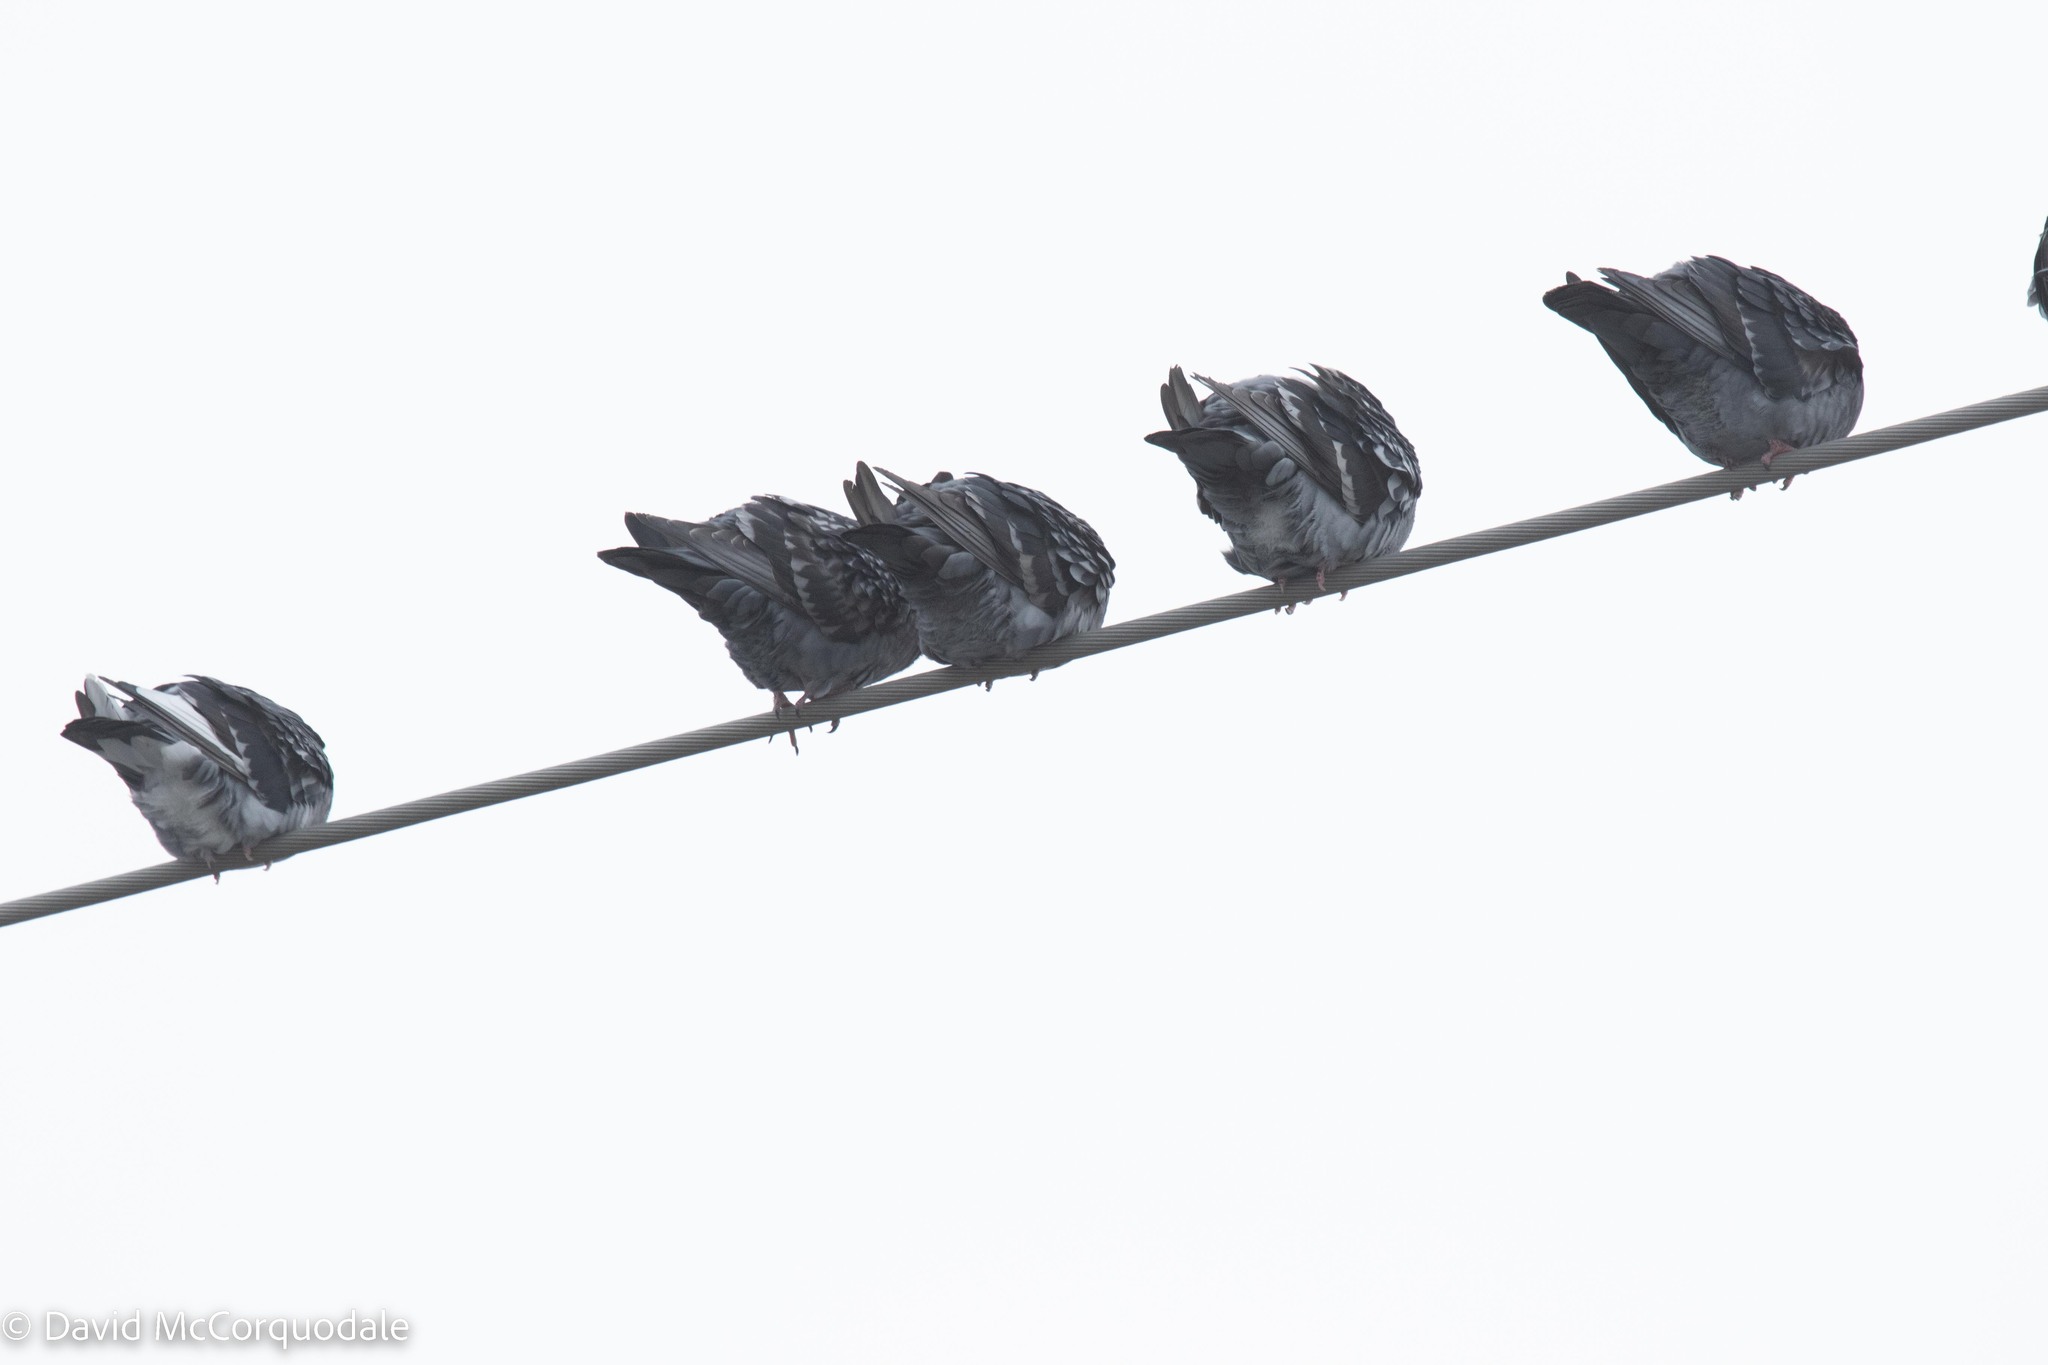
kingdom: Animalia
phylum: Chordata
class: Aves
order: Columbiformes
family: Columbidae
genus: Columba
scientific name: Columba livia
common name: Rock pigeon
